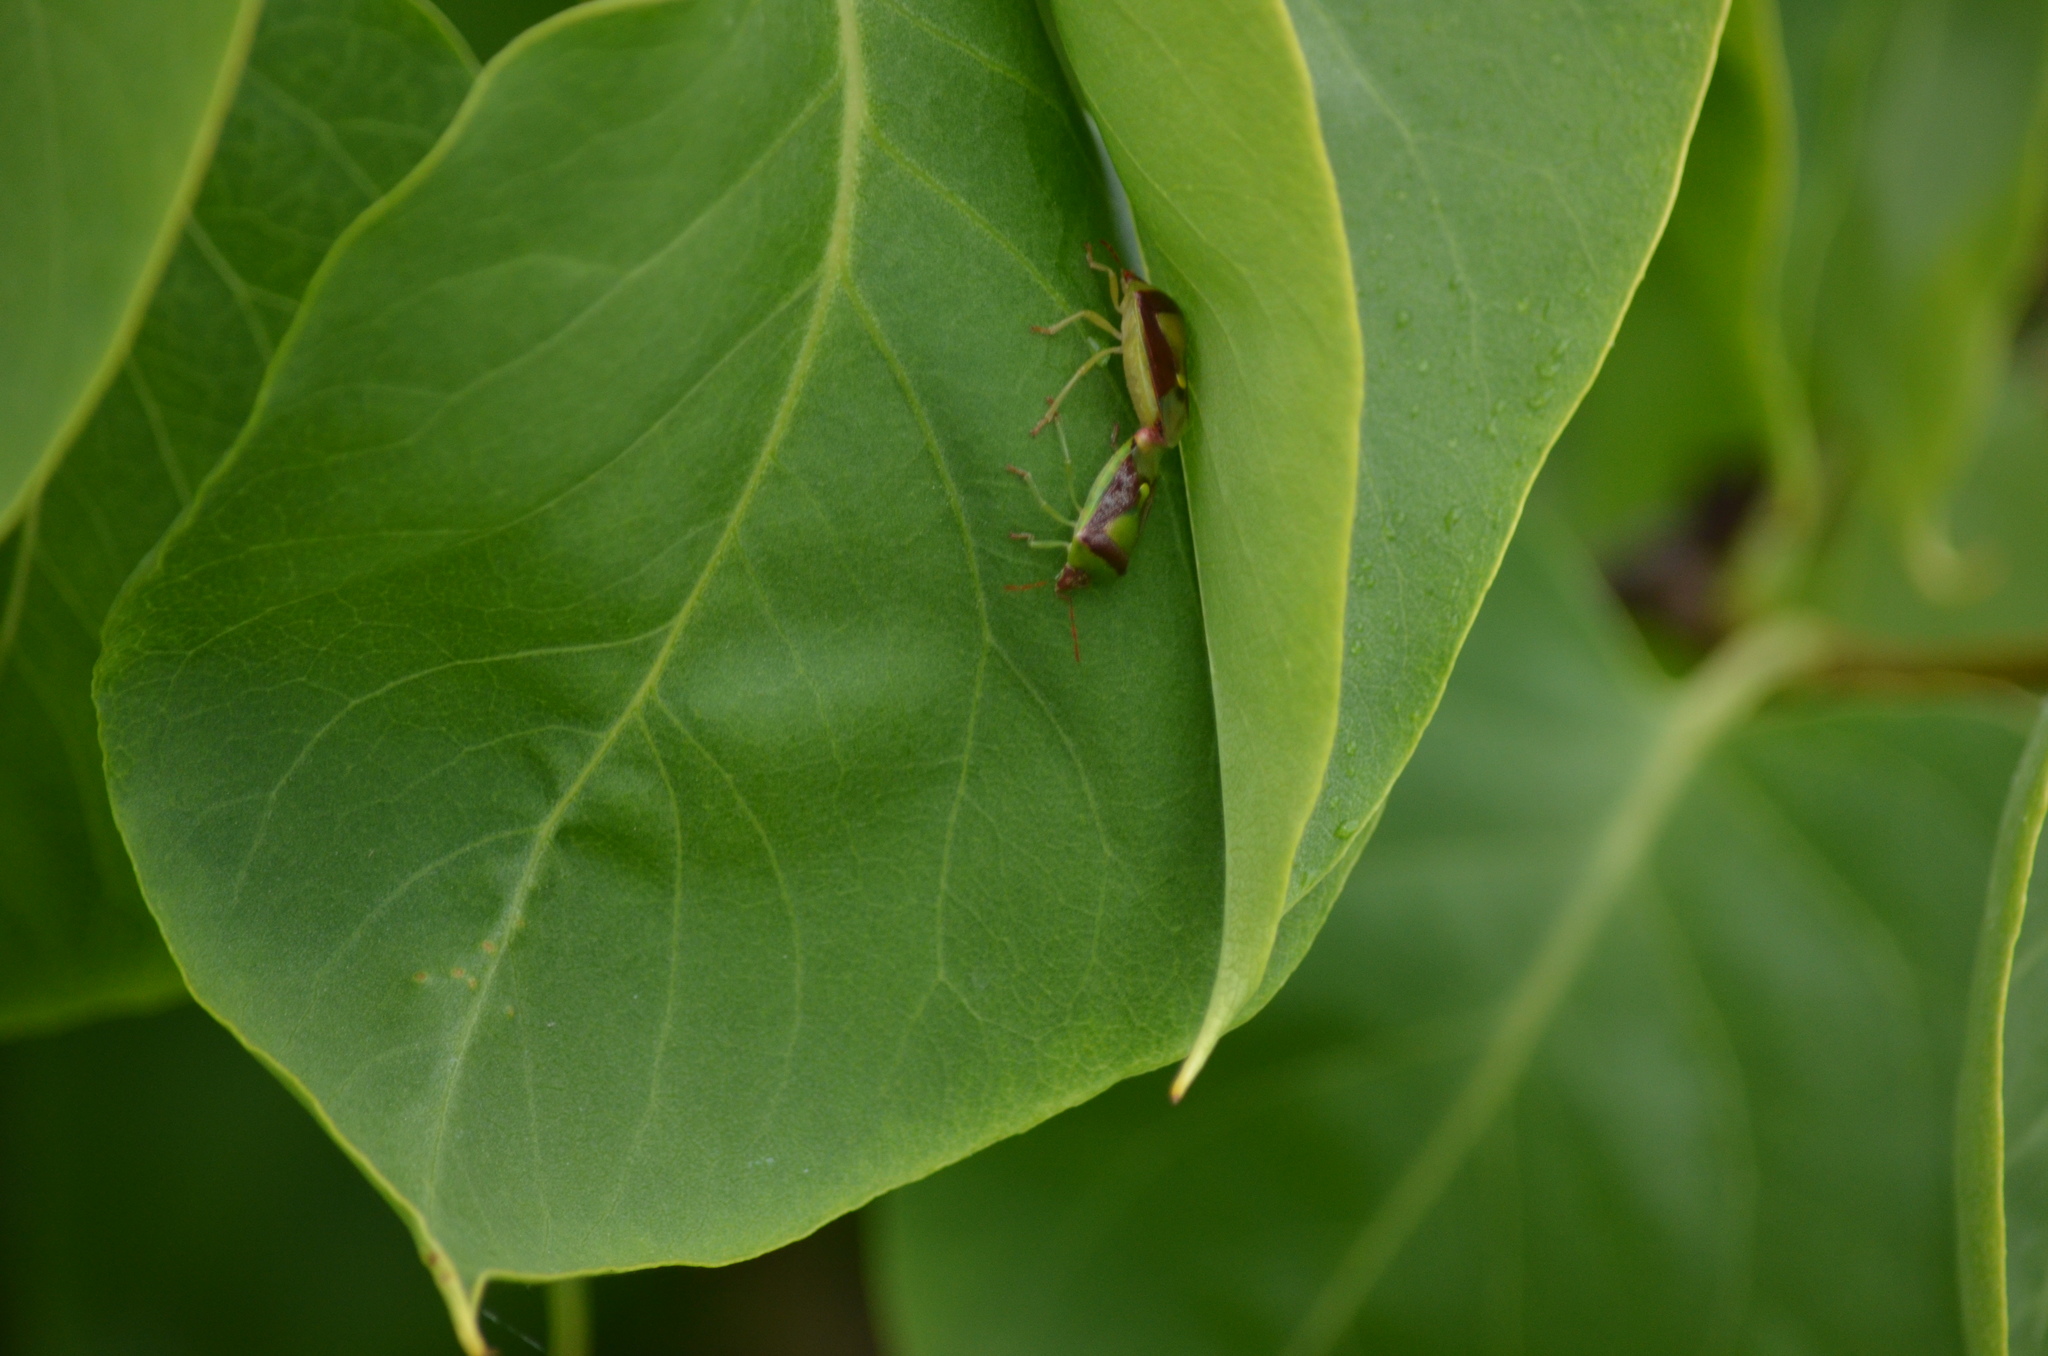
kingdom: Animalia
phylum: Arthropoda
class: Insecta
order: Hemiptera
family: Pentatomidae
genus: Banasa
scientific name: Banasa dimidiata
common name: Green burgundy stink bug
